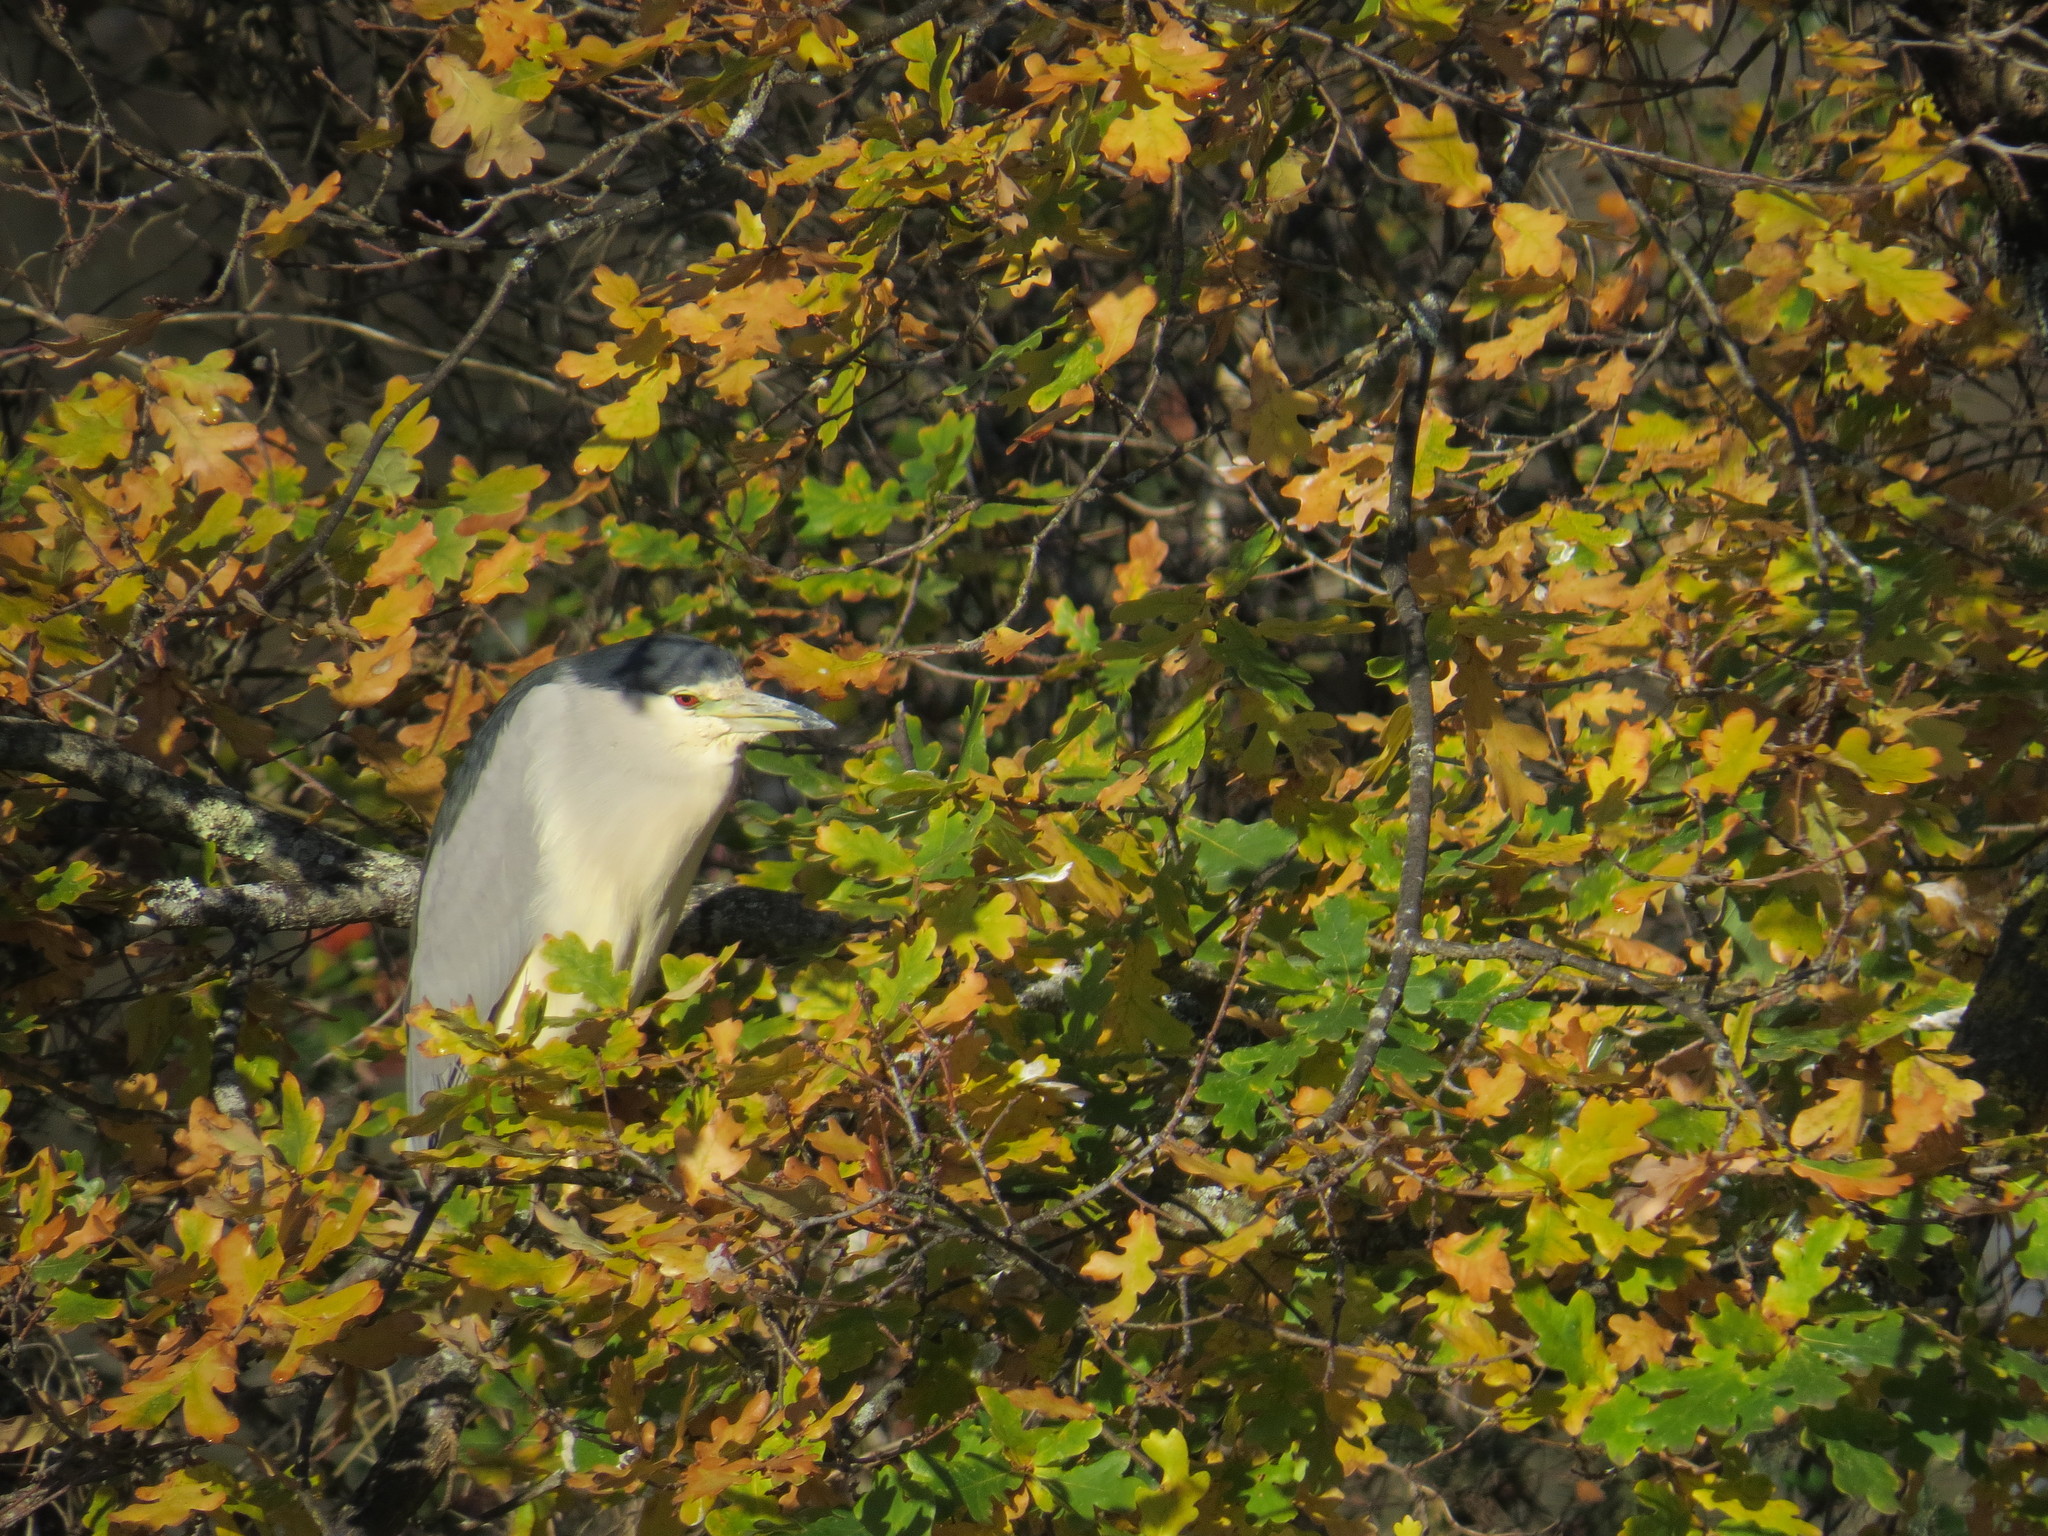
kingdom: Animalia
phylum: Chordata
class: Aves
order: Pelecaniformes
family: Ardeidae
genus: Nycticorax
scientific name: Nycticorax nycticorax
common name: Black-crowned night heron
